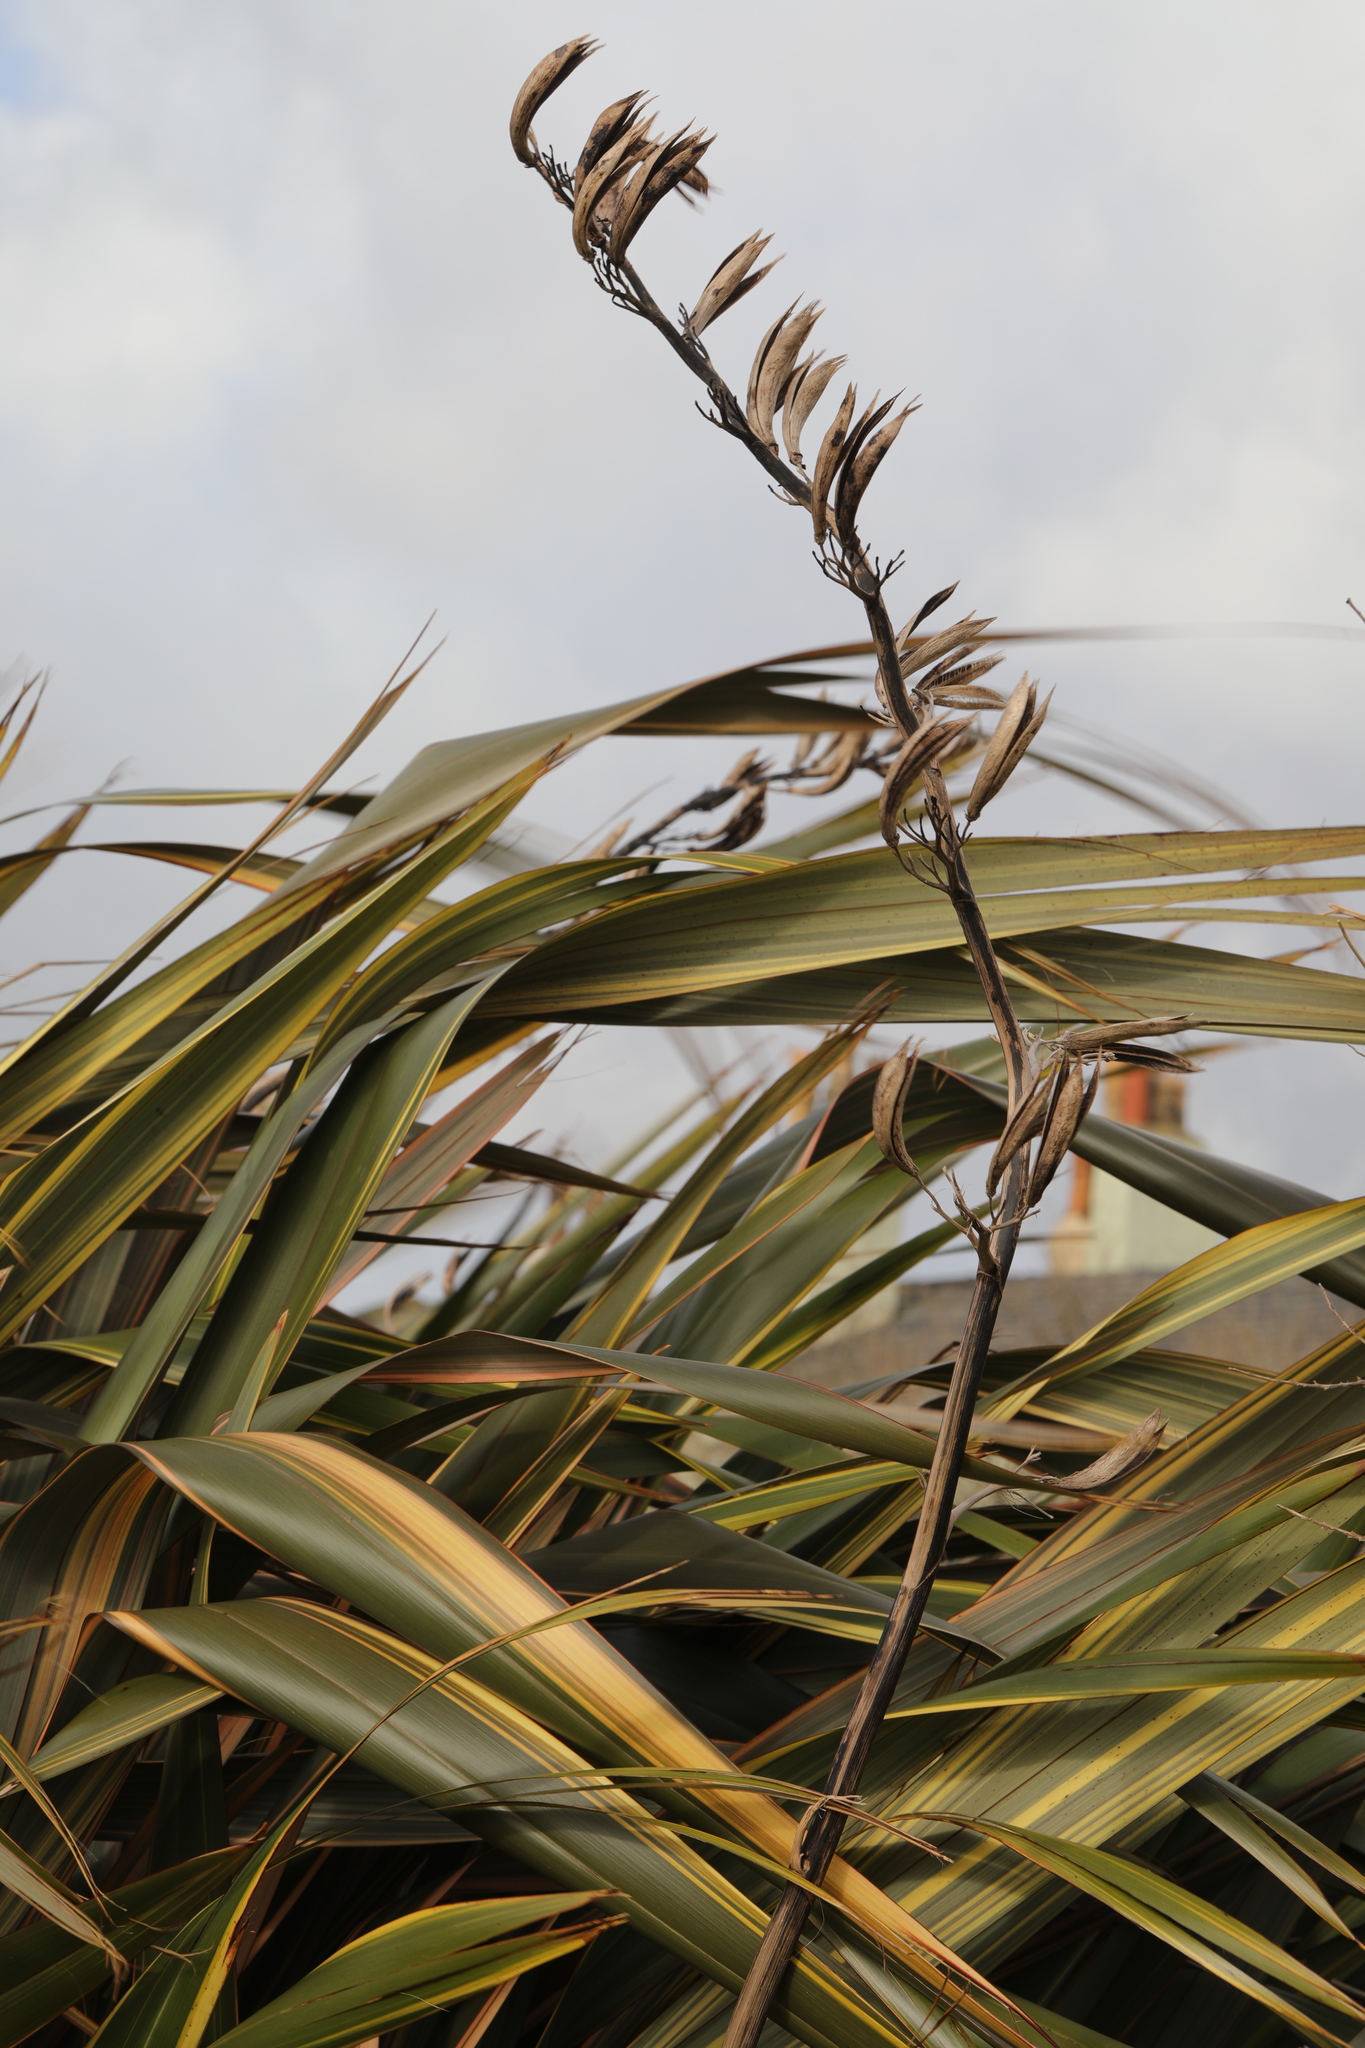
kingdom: Plantae
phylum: Tracheophyta
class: Liliopsida
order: Asparagales
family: Asphodelaceae
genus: Phormium
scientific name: Phormium tenax
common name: New zealand flax
